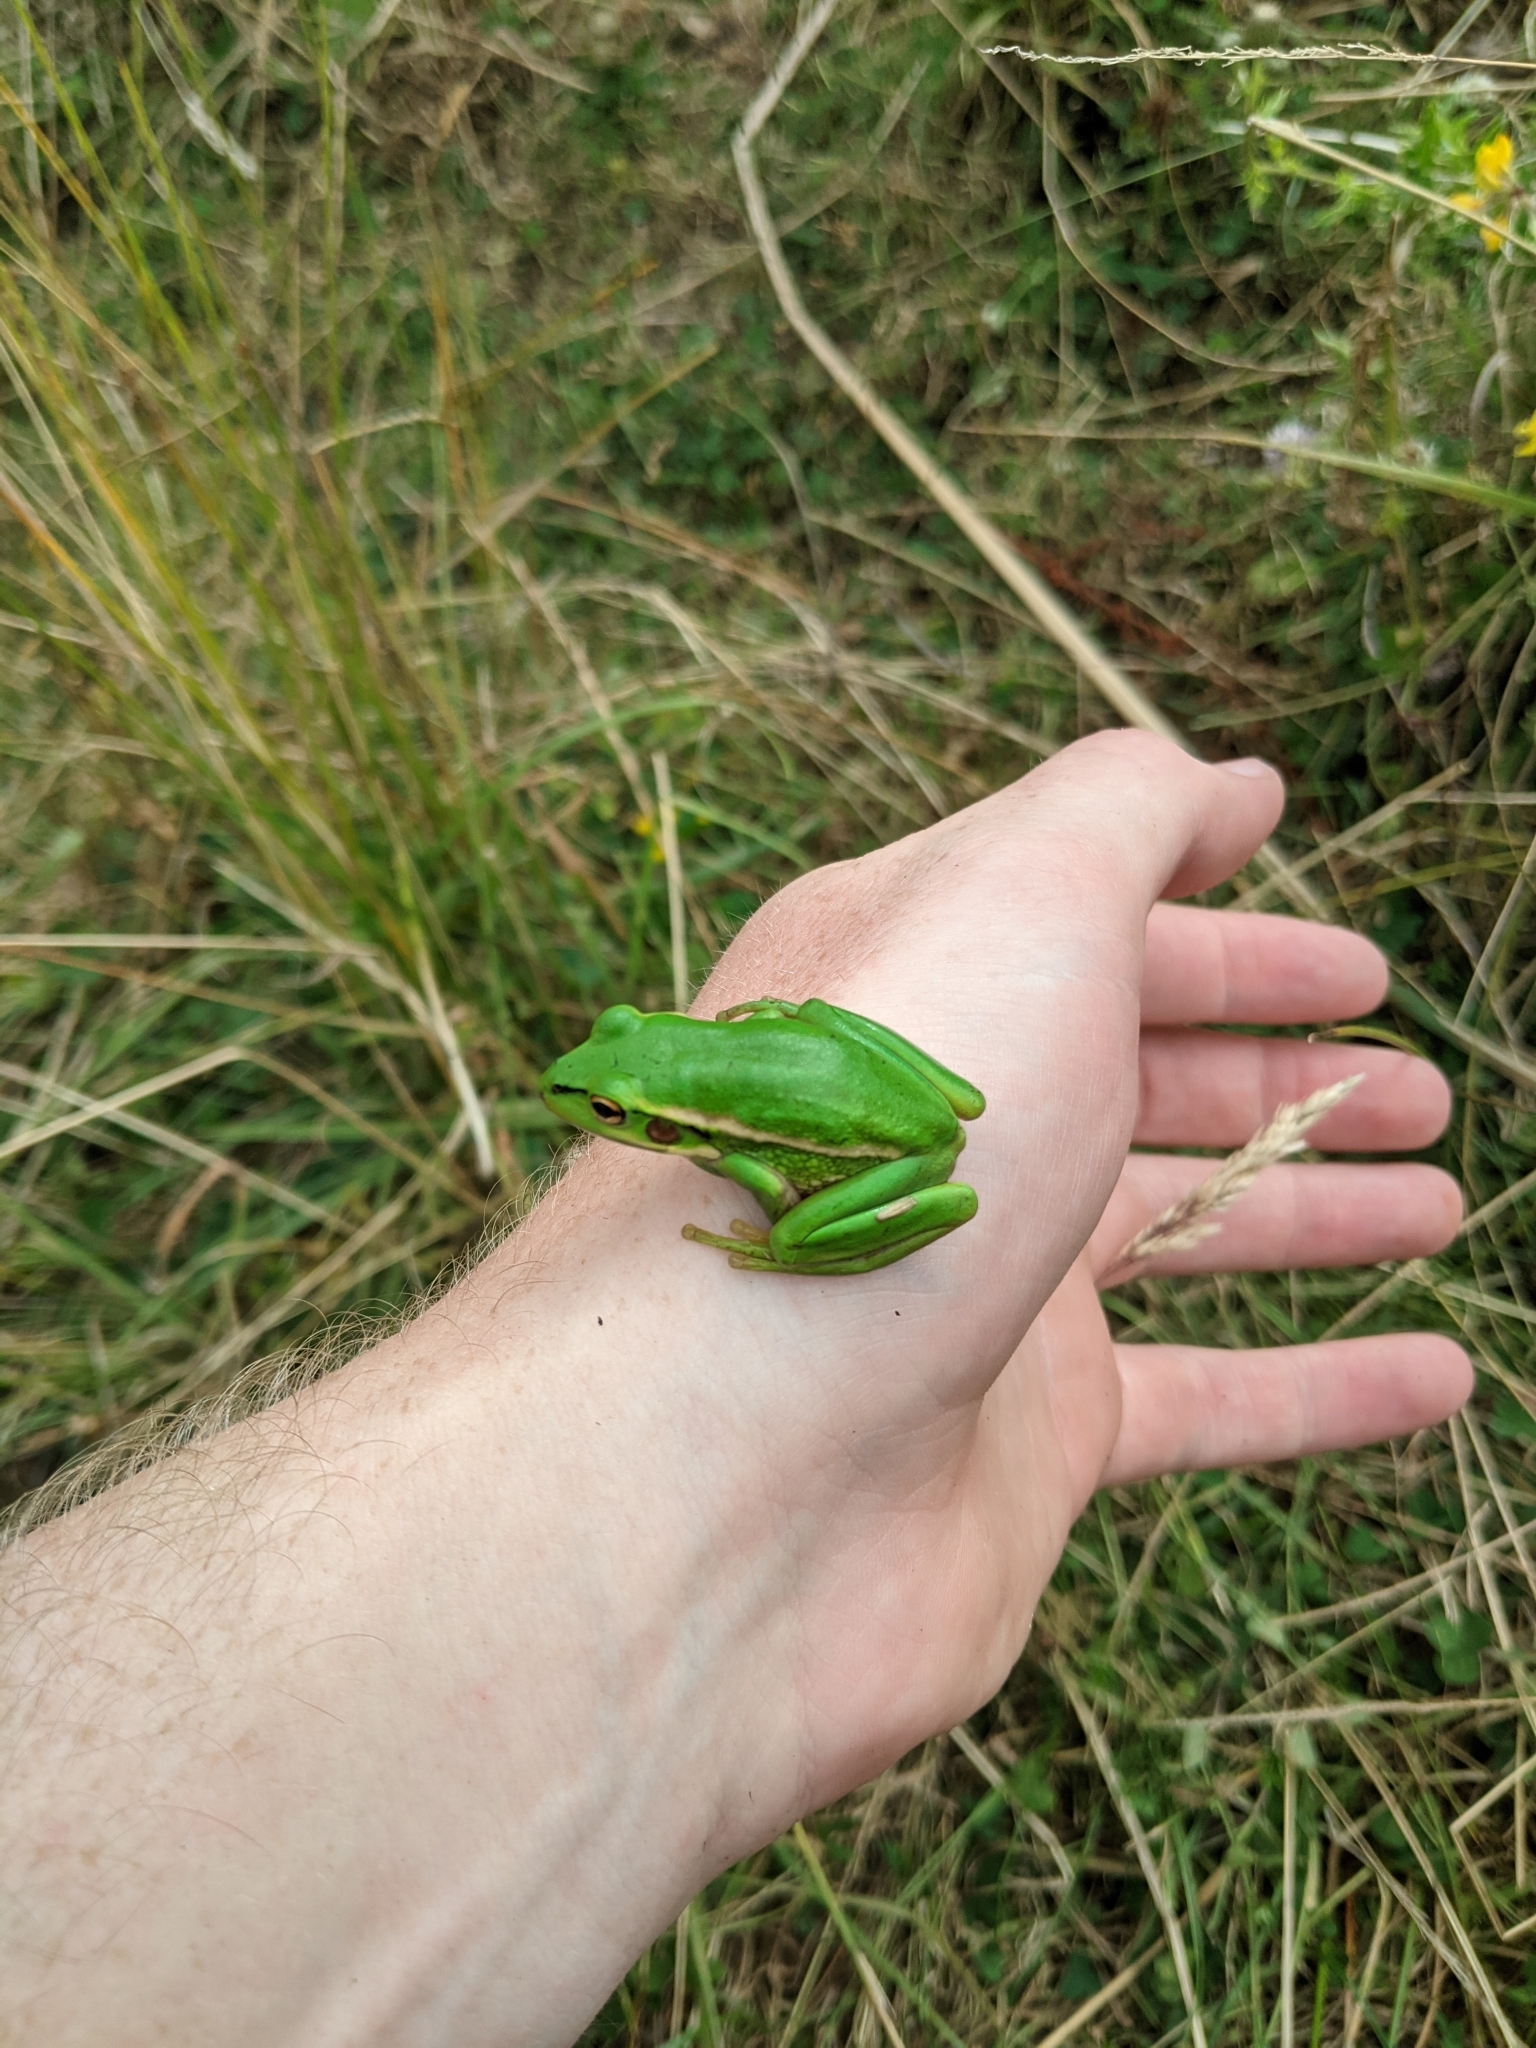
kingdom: Animalia
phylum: Chordata
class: Amphibia
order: Anura
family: Pelodryadidae
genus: Ranoidea
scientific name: Ranoidea aurea
